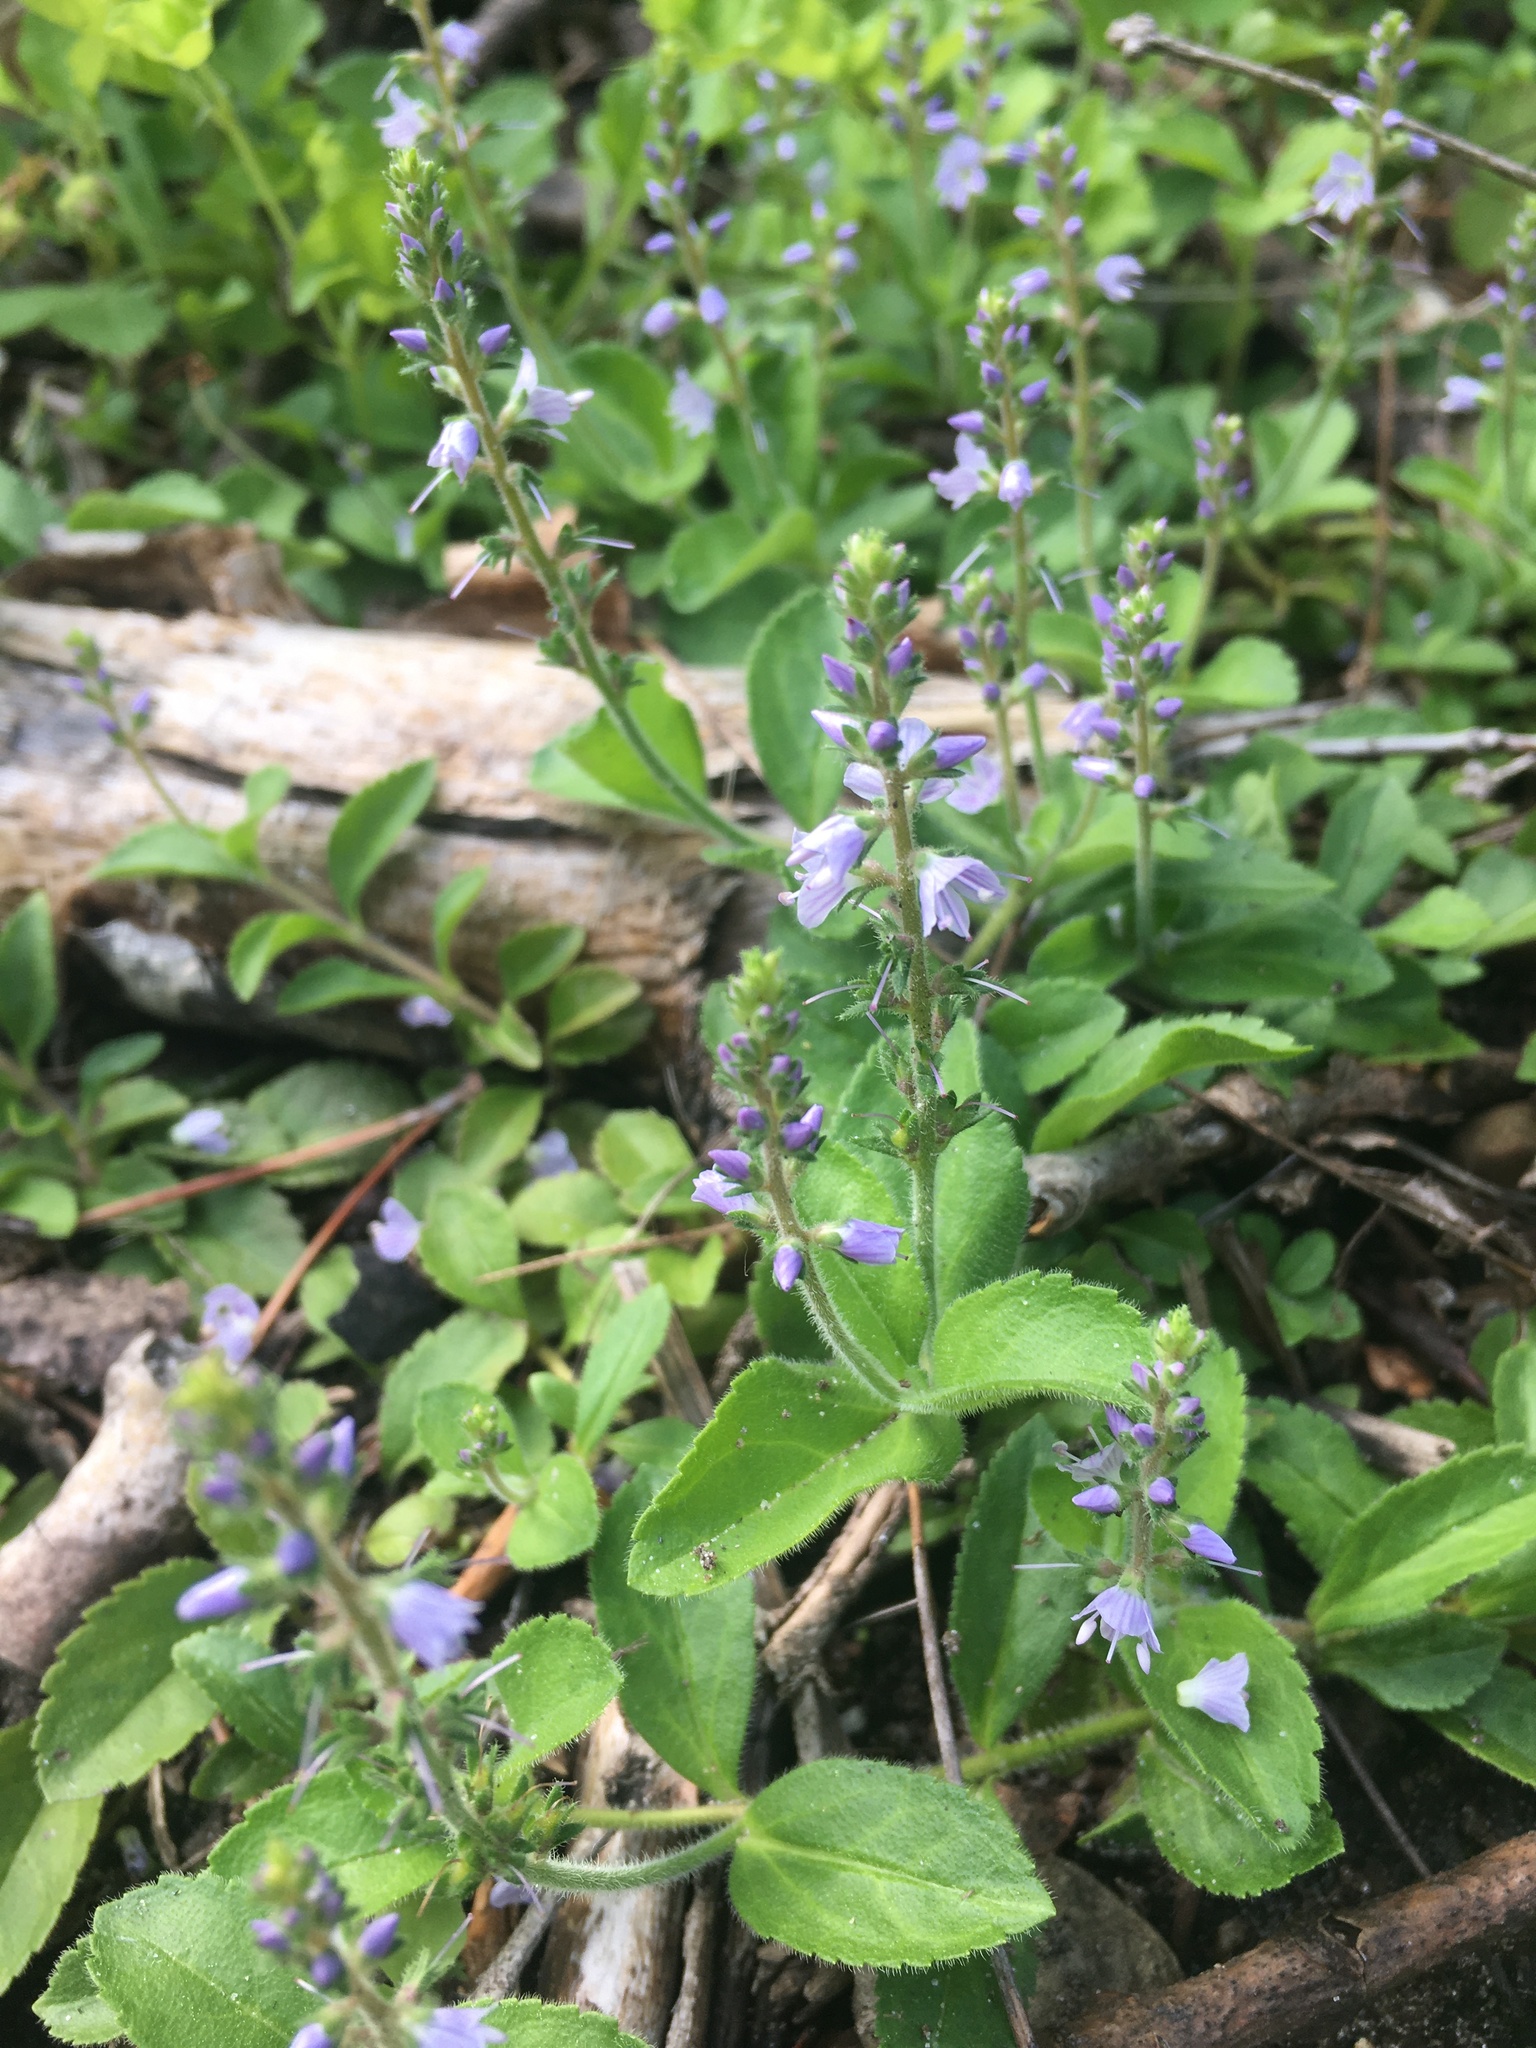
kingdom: Plantae
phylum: Tracheophyta
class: Magnoliopsida
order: Lamiales
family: Plantaginaceae
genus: Veronica
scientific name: Veronica officinalis
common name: Common speedwell
